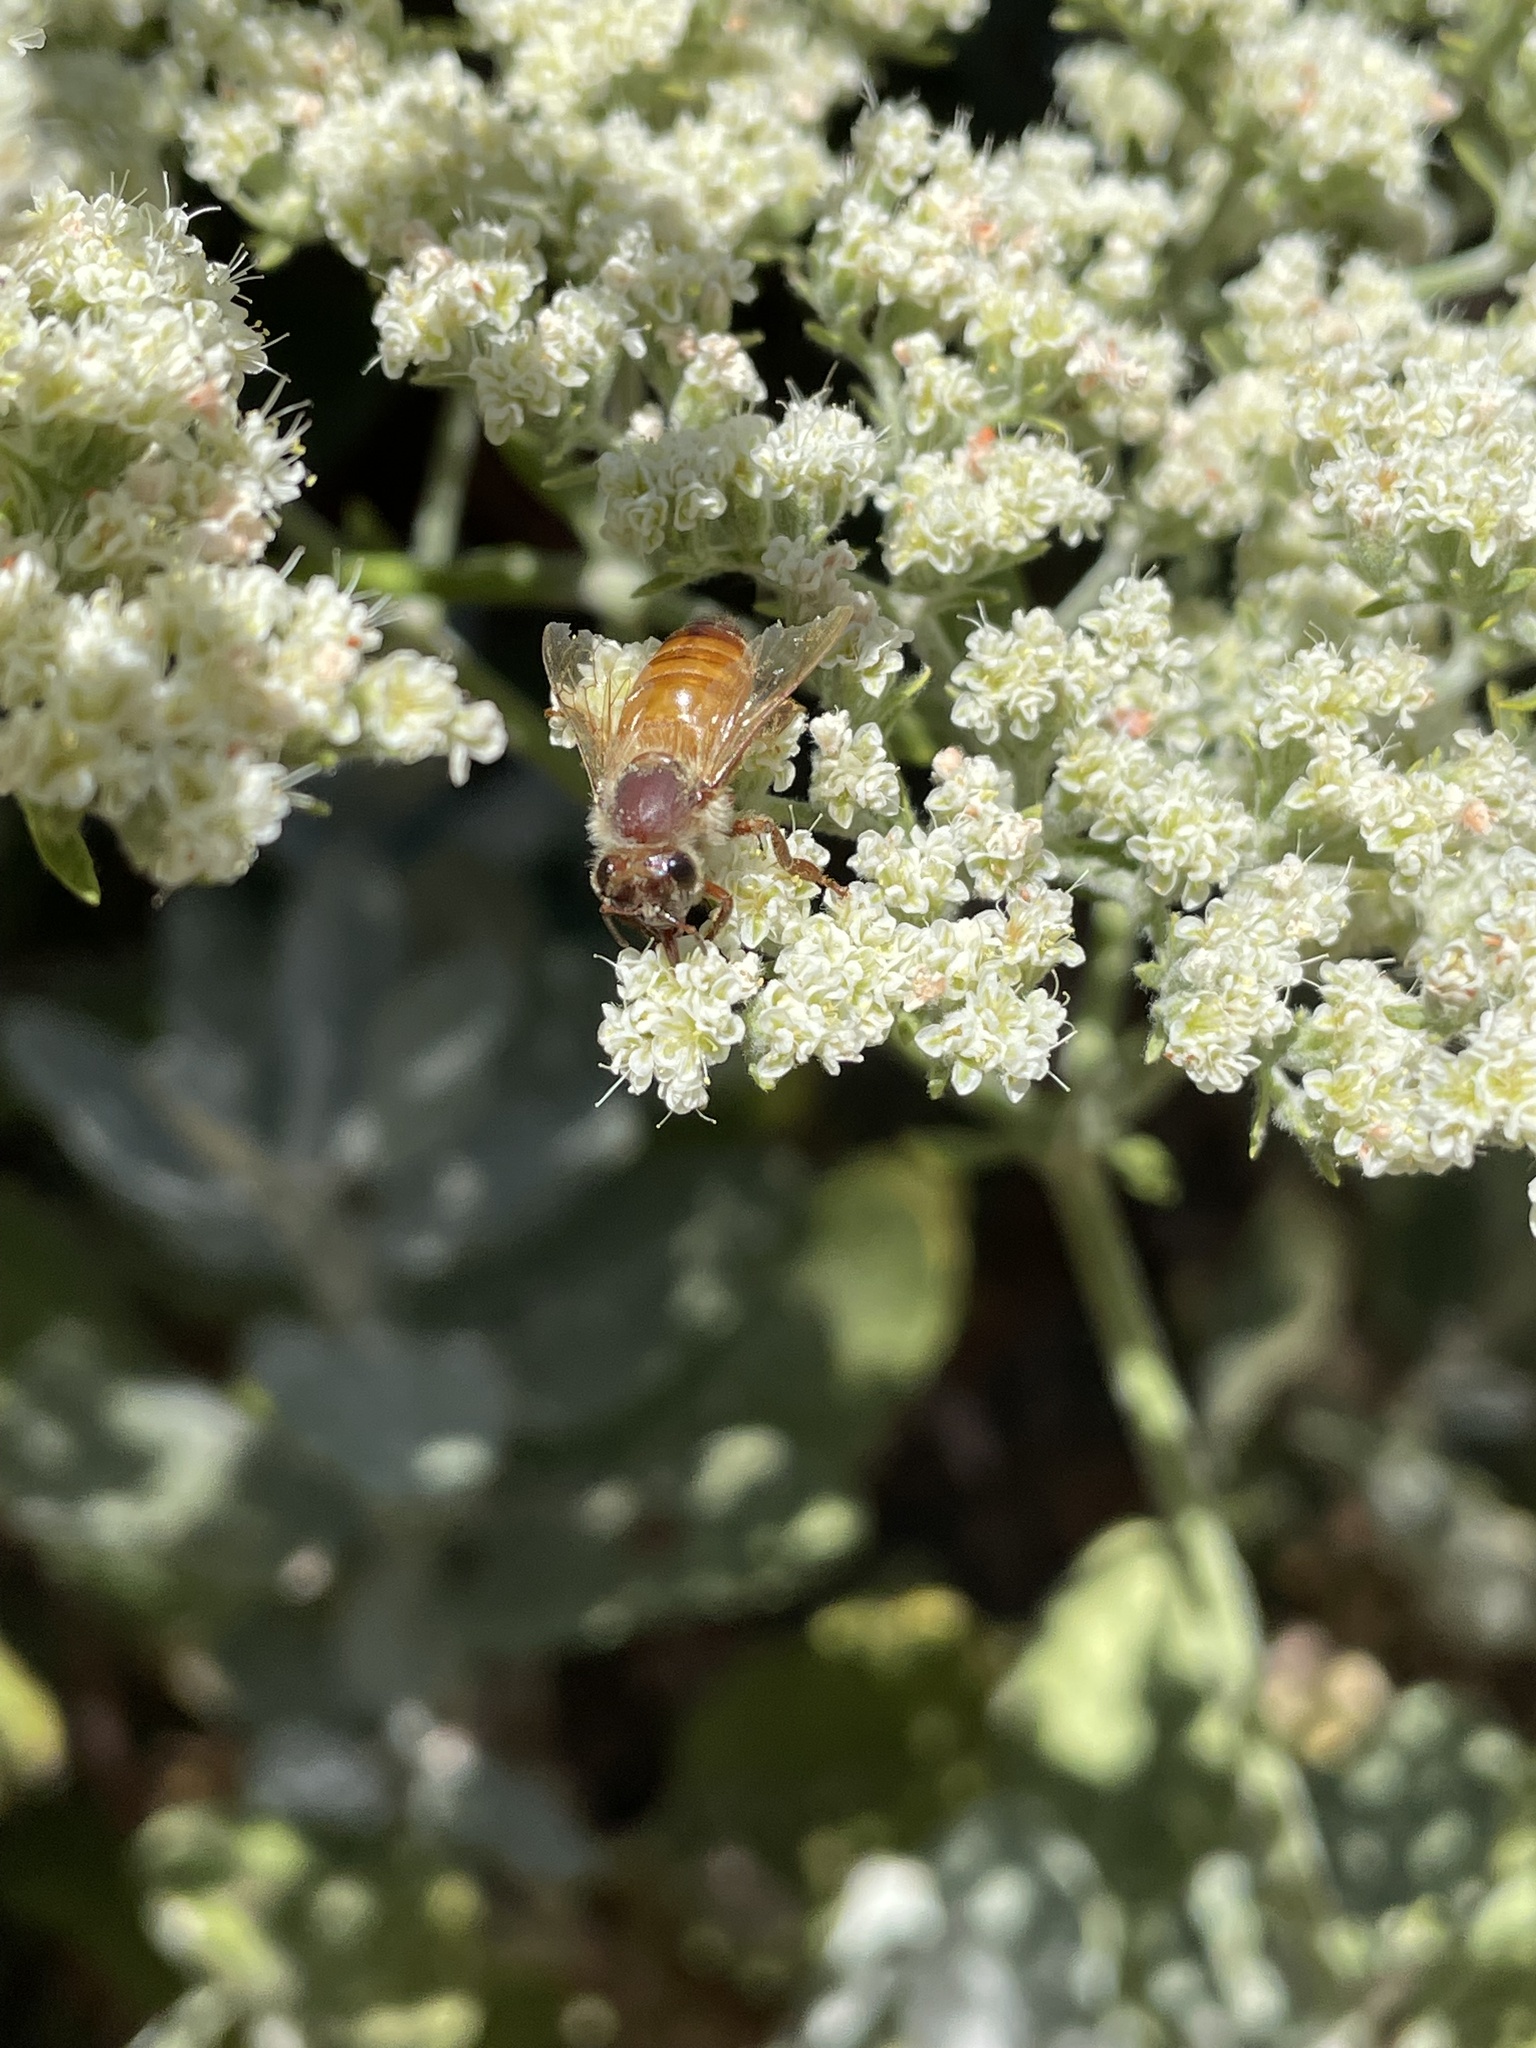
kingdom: Animalia
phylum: Arthropoda
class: Insecta
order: Hymenoptera
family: Apidae
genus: Apis
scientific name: Apis mellifera
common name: Honey bee
